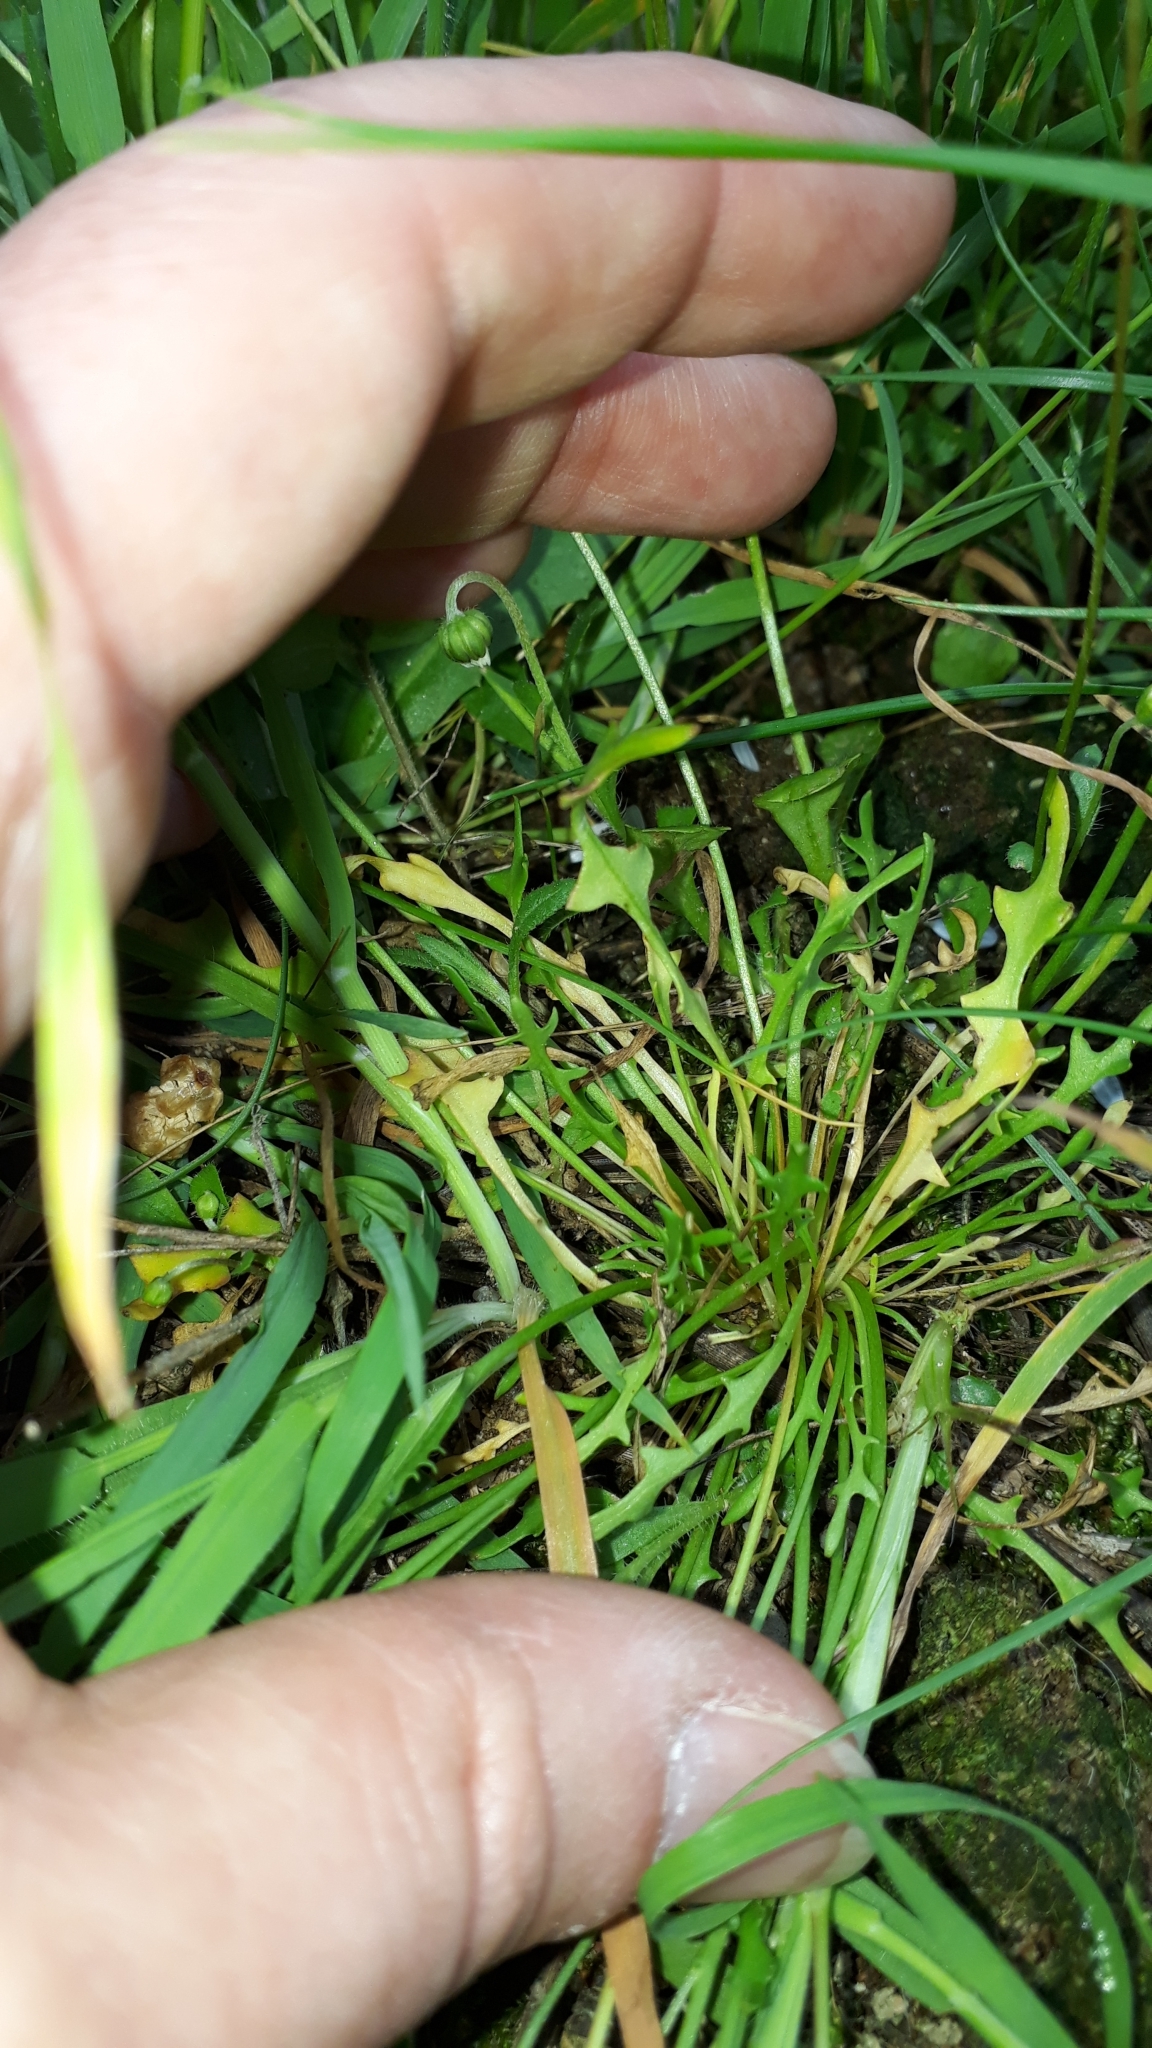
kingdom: Plantae
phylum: Tracheophyta
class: Magnoliopsida
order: Brassicales
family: Brassicaceae
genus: Teesdalia
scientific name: Teesdalia coronopifolia
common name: Lesser shepherdscress
